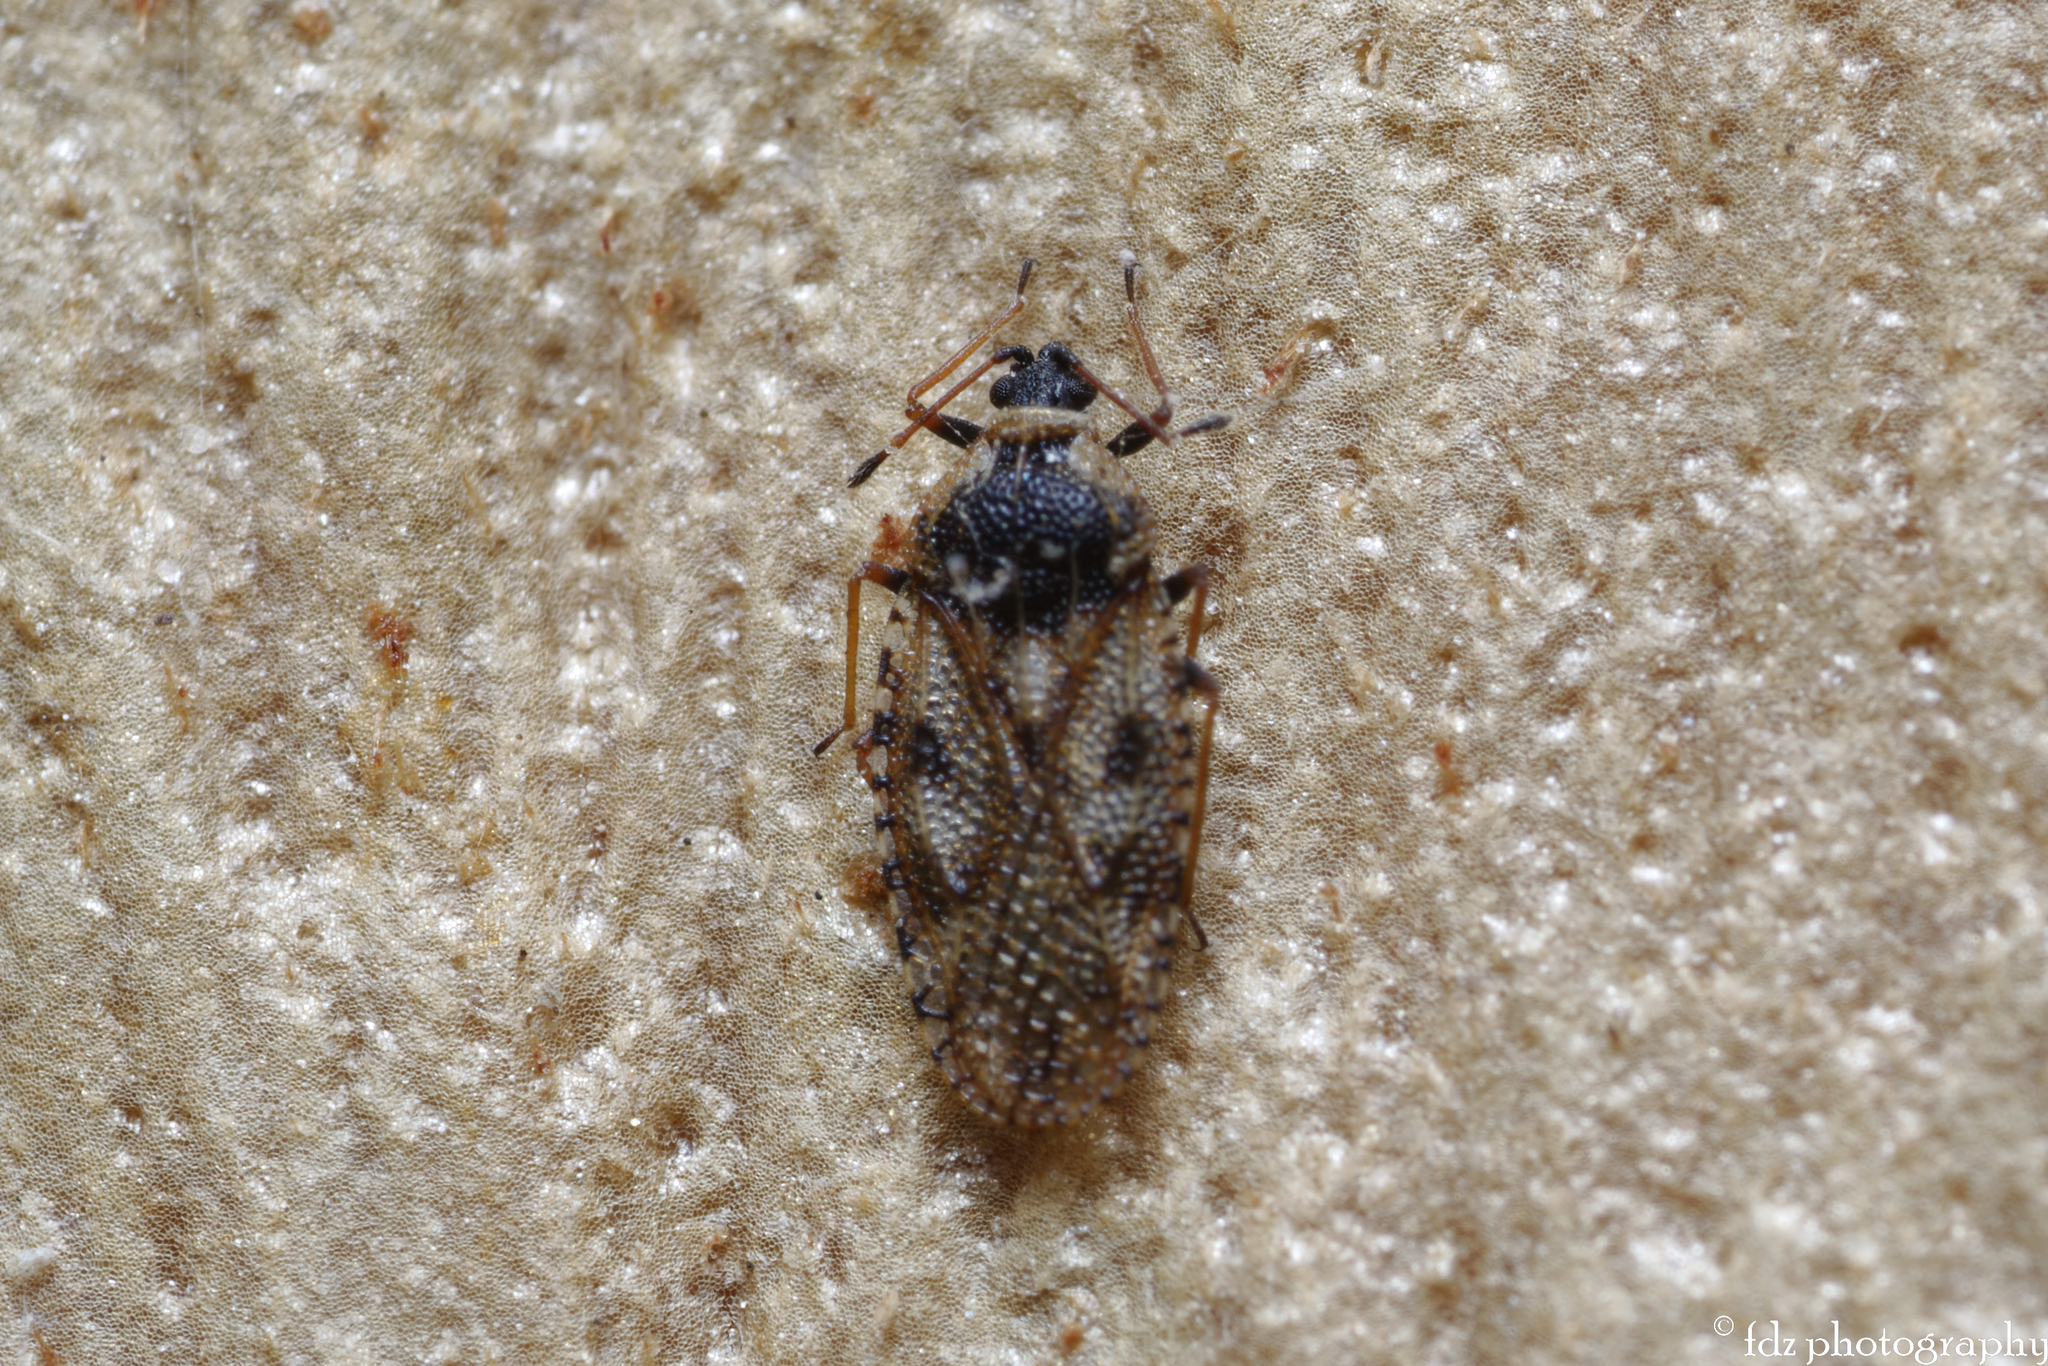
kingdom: Animalia
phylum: Arthropoda
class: Insecta
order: Hemiptera
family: Tingidae
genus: Dictyla
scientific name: Dictyla echii
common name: Lace bug
